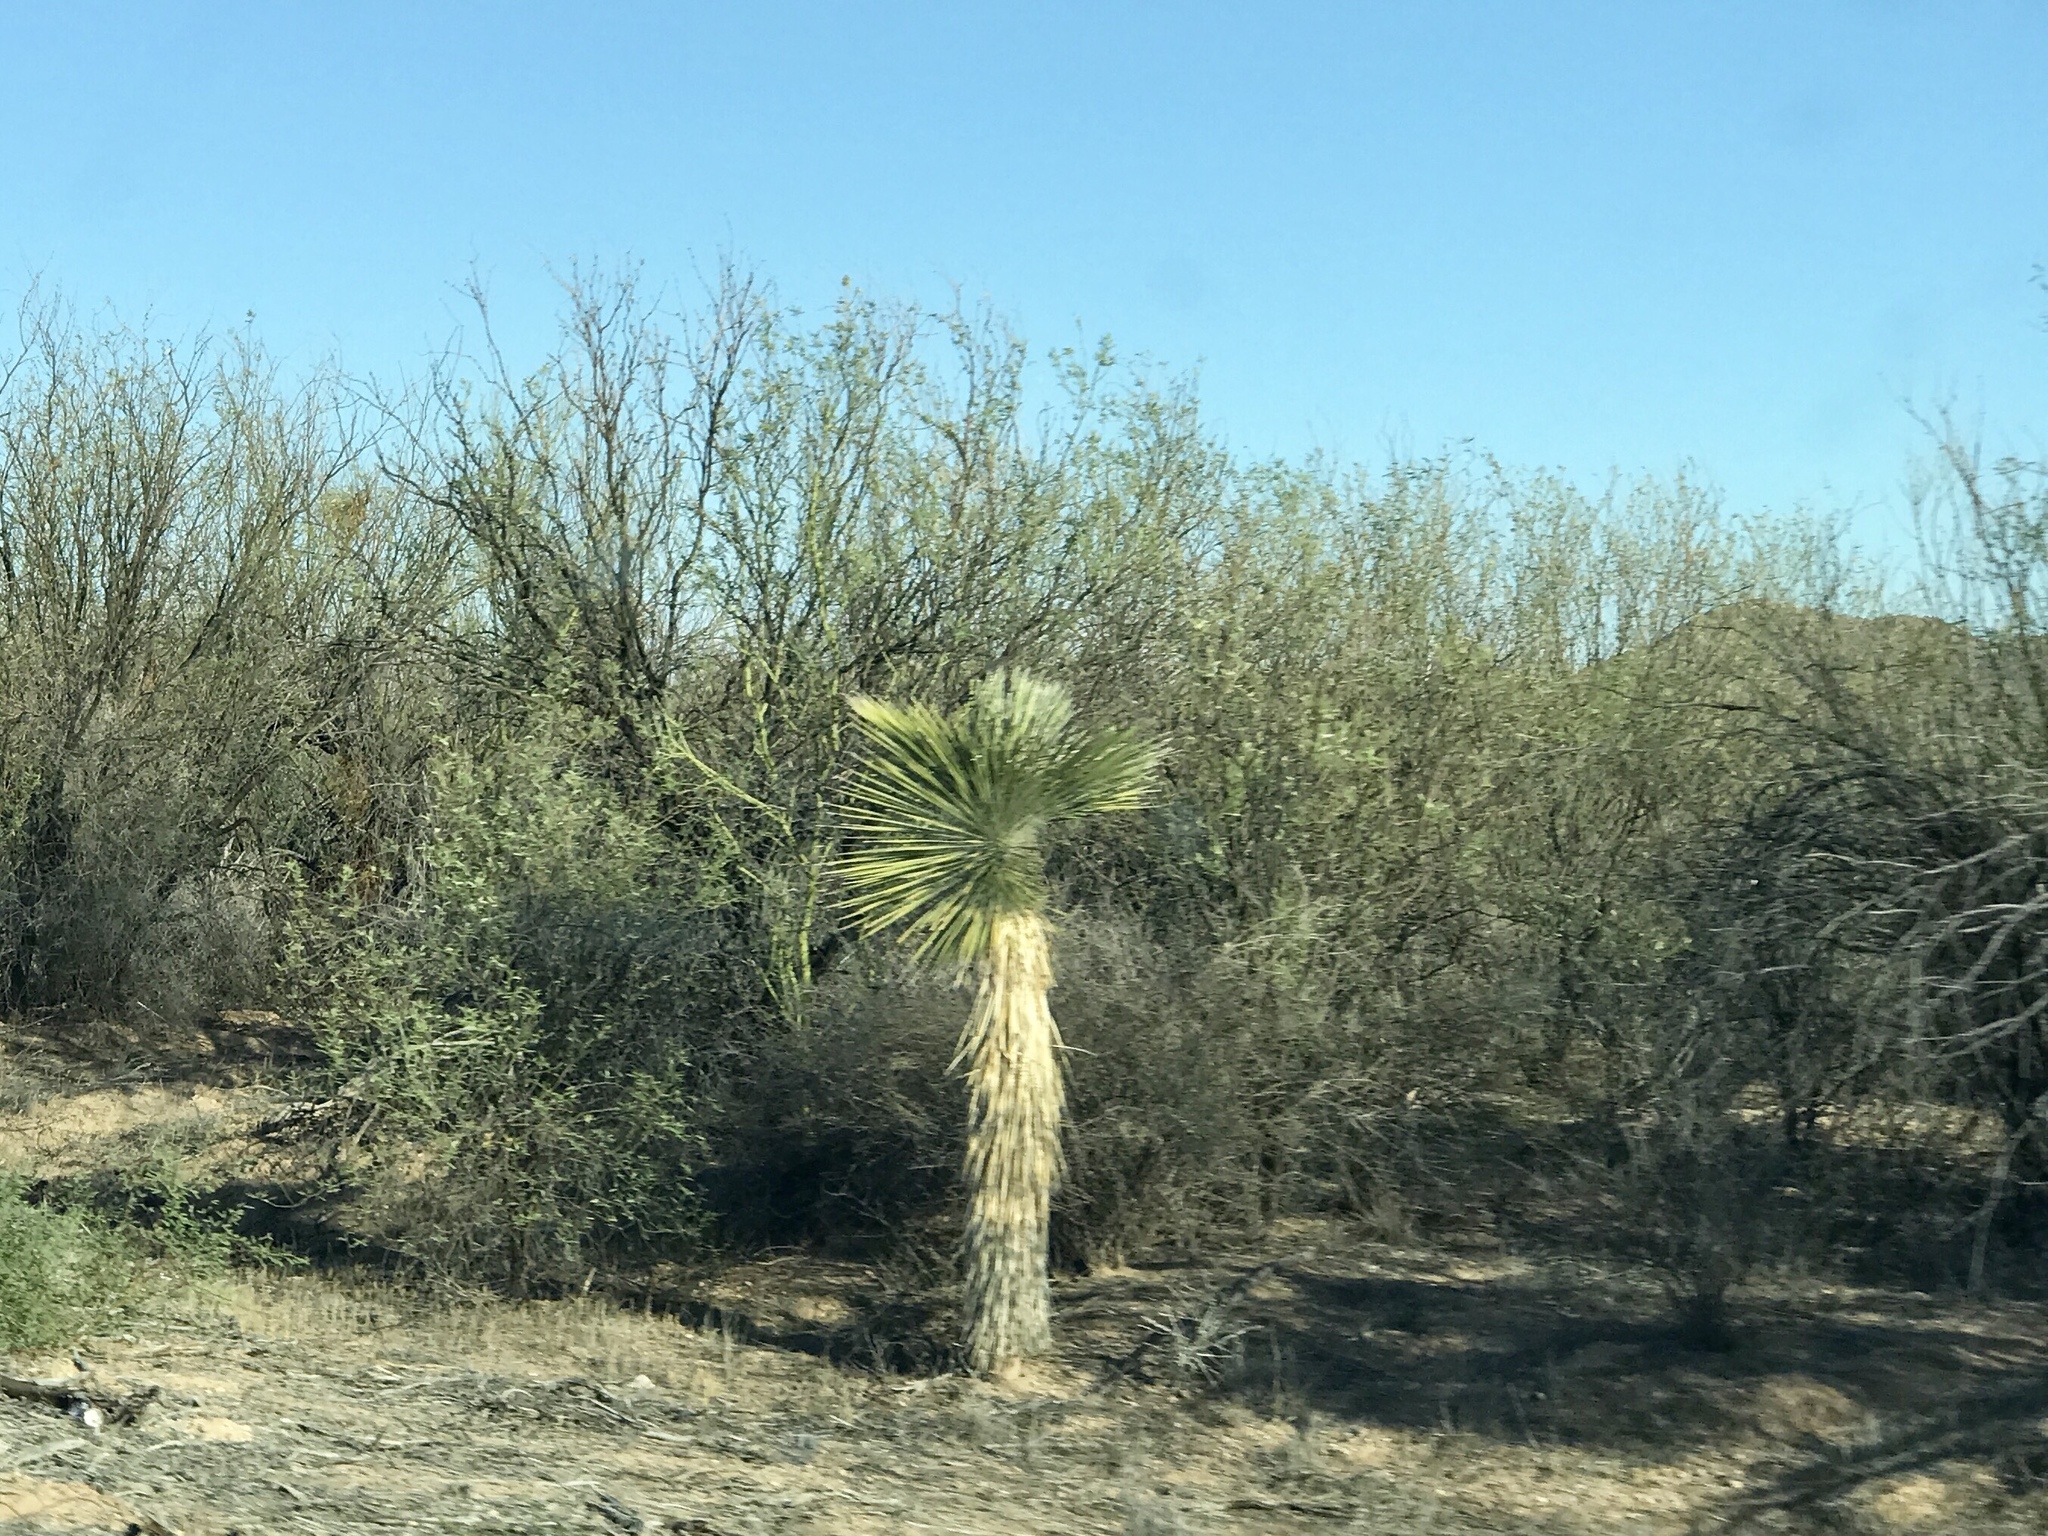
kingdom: Plantae
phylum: Tracheophyta
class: Liliopsida
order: Asparagales
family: Asparagaceae
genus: Yucca
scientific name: Yucca elata
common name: Palmella
